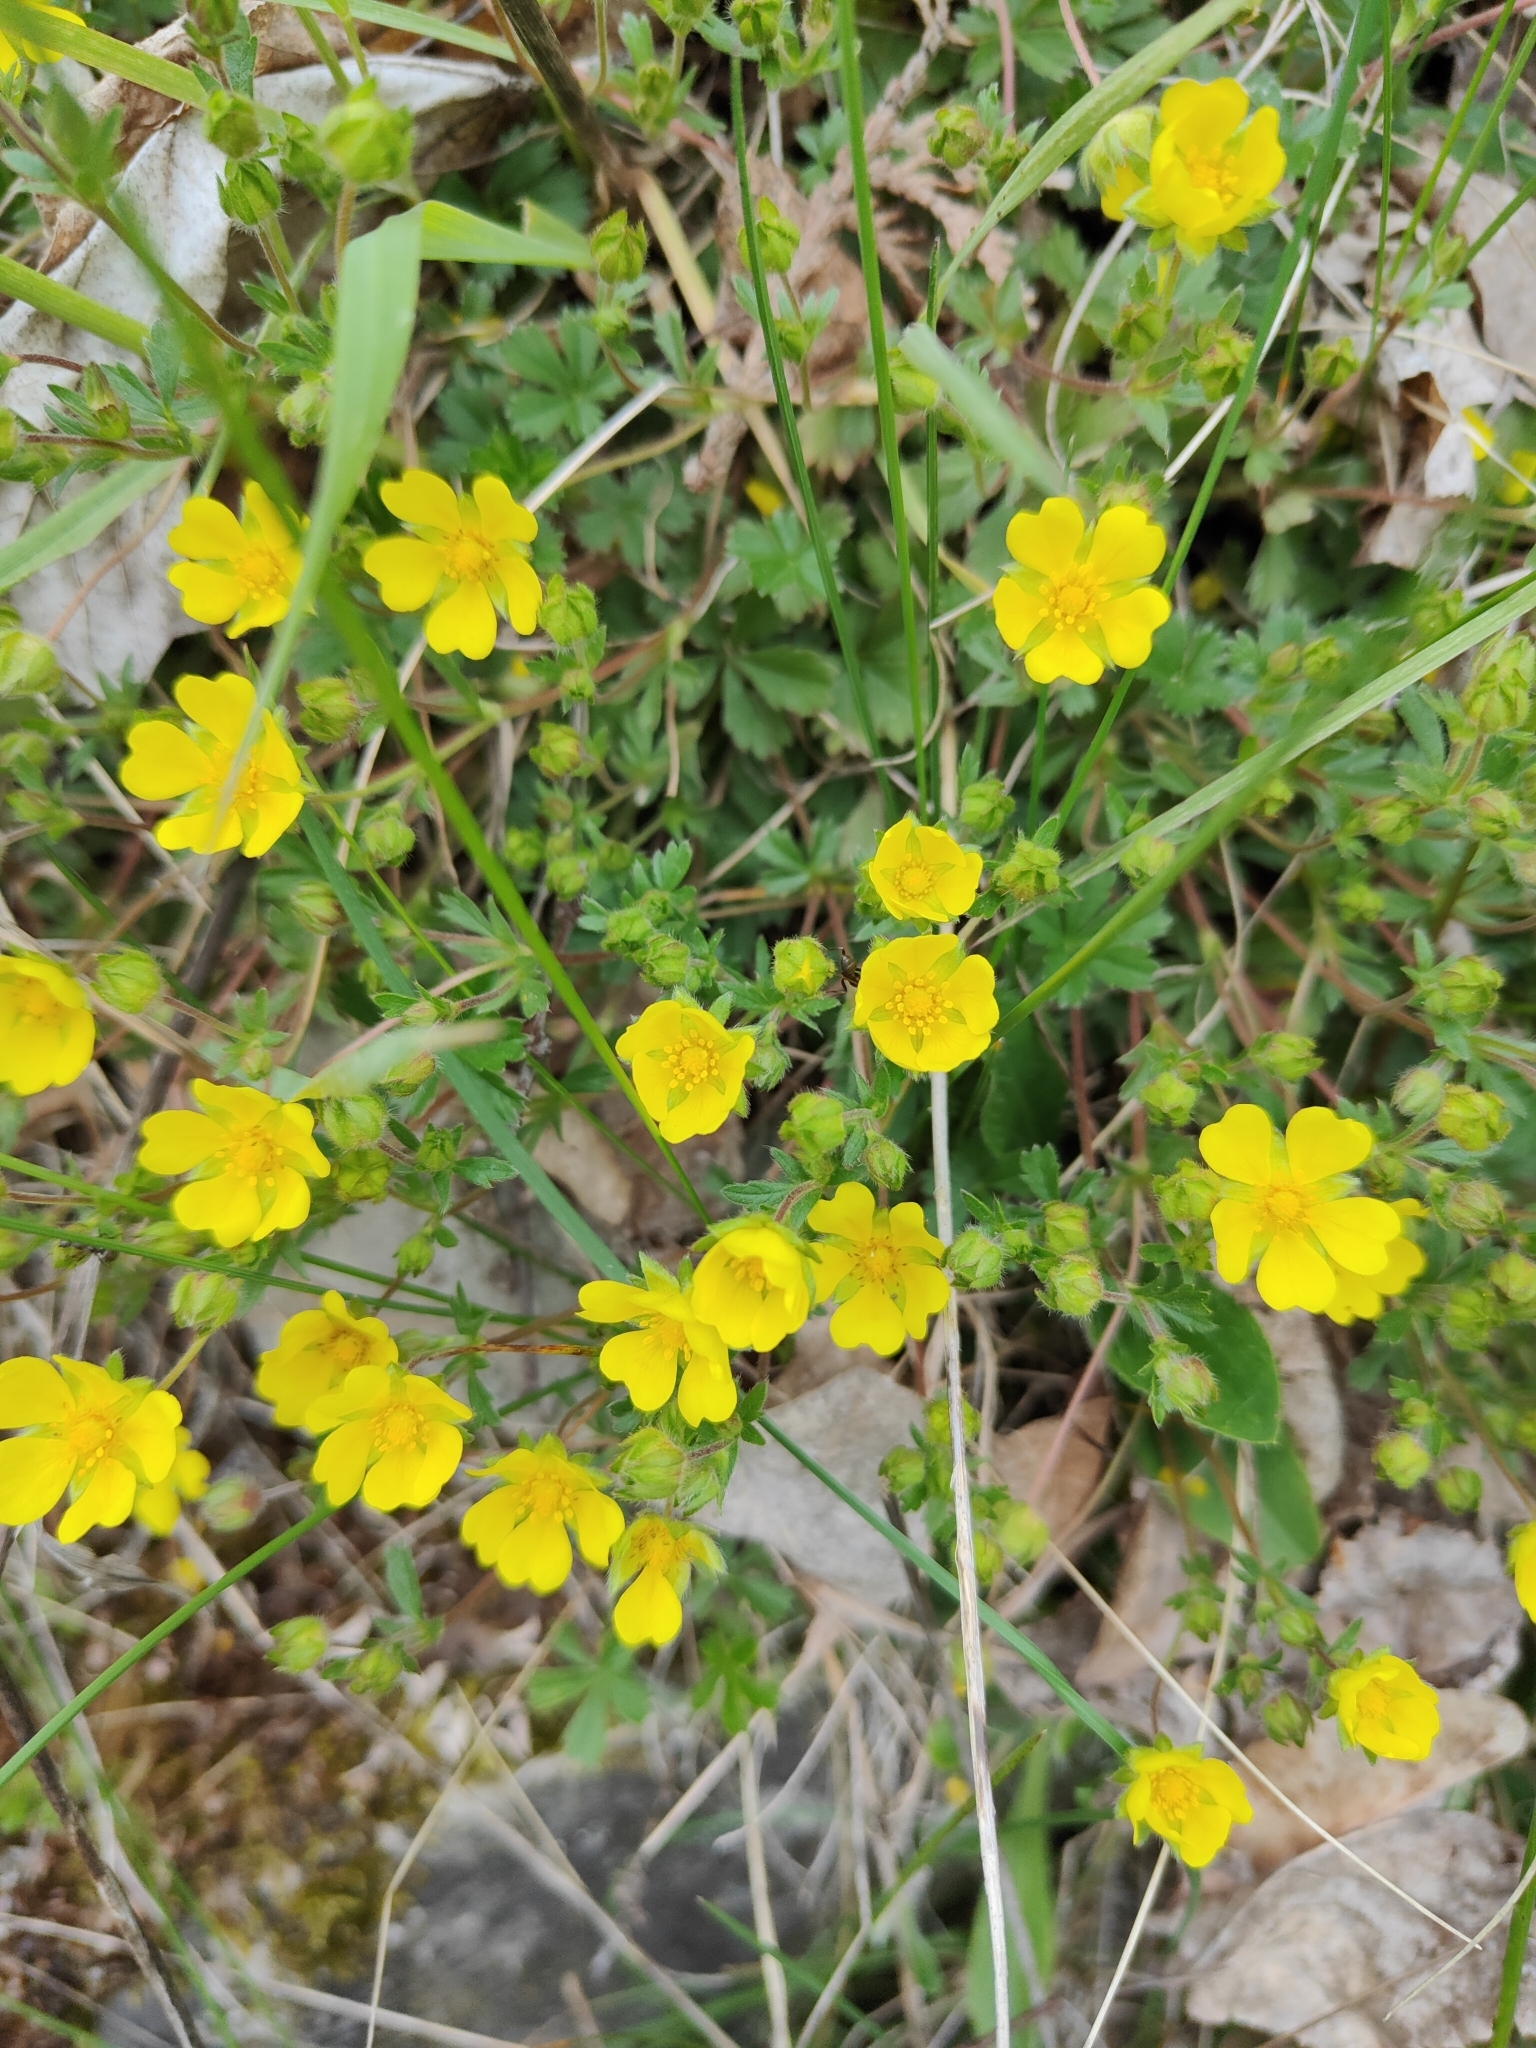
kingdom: Plantae
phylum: Tracheophyta
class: Magnoliopsida
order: Rosales
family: Rosaceae
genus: Potentilla
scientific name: Potentilla verna
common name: Spring cinquefoil
